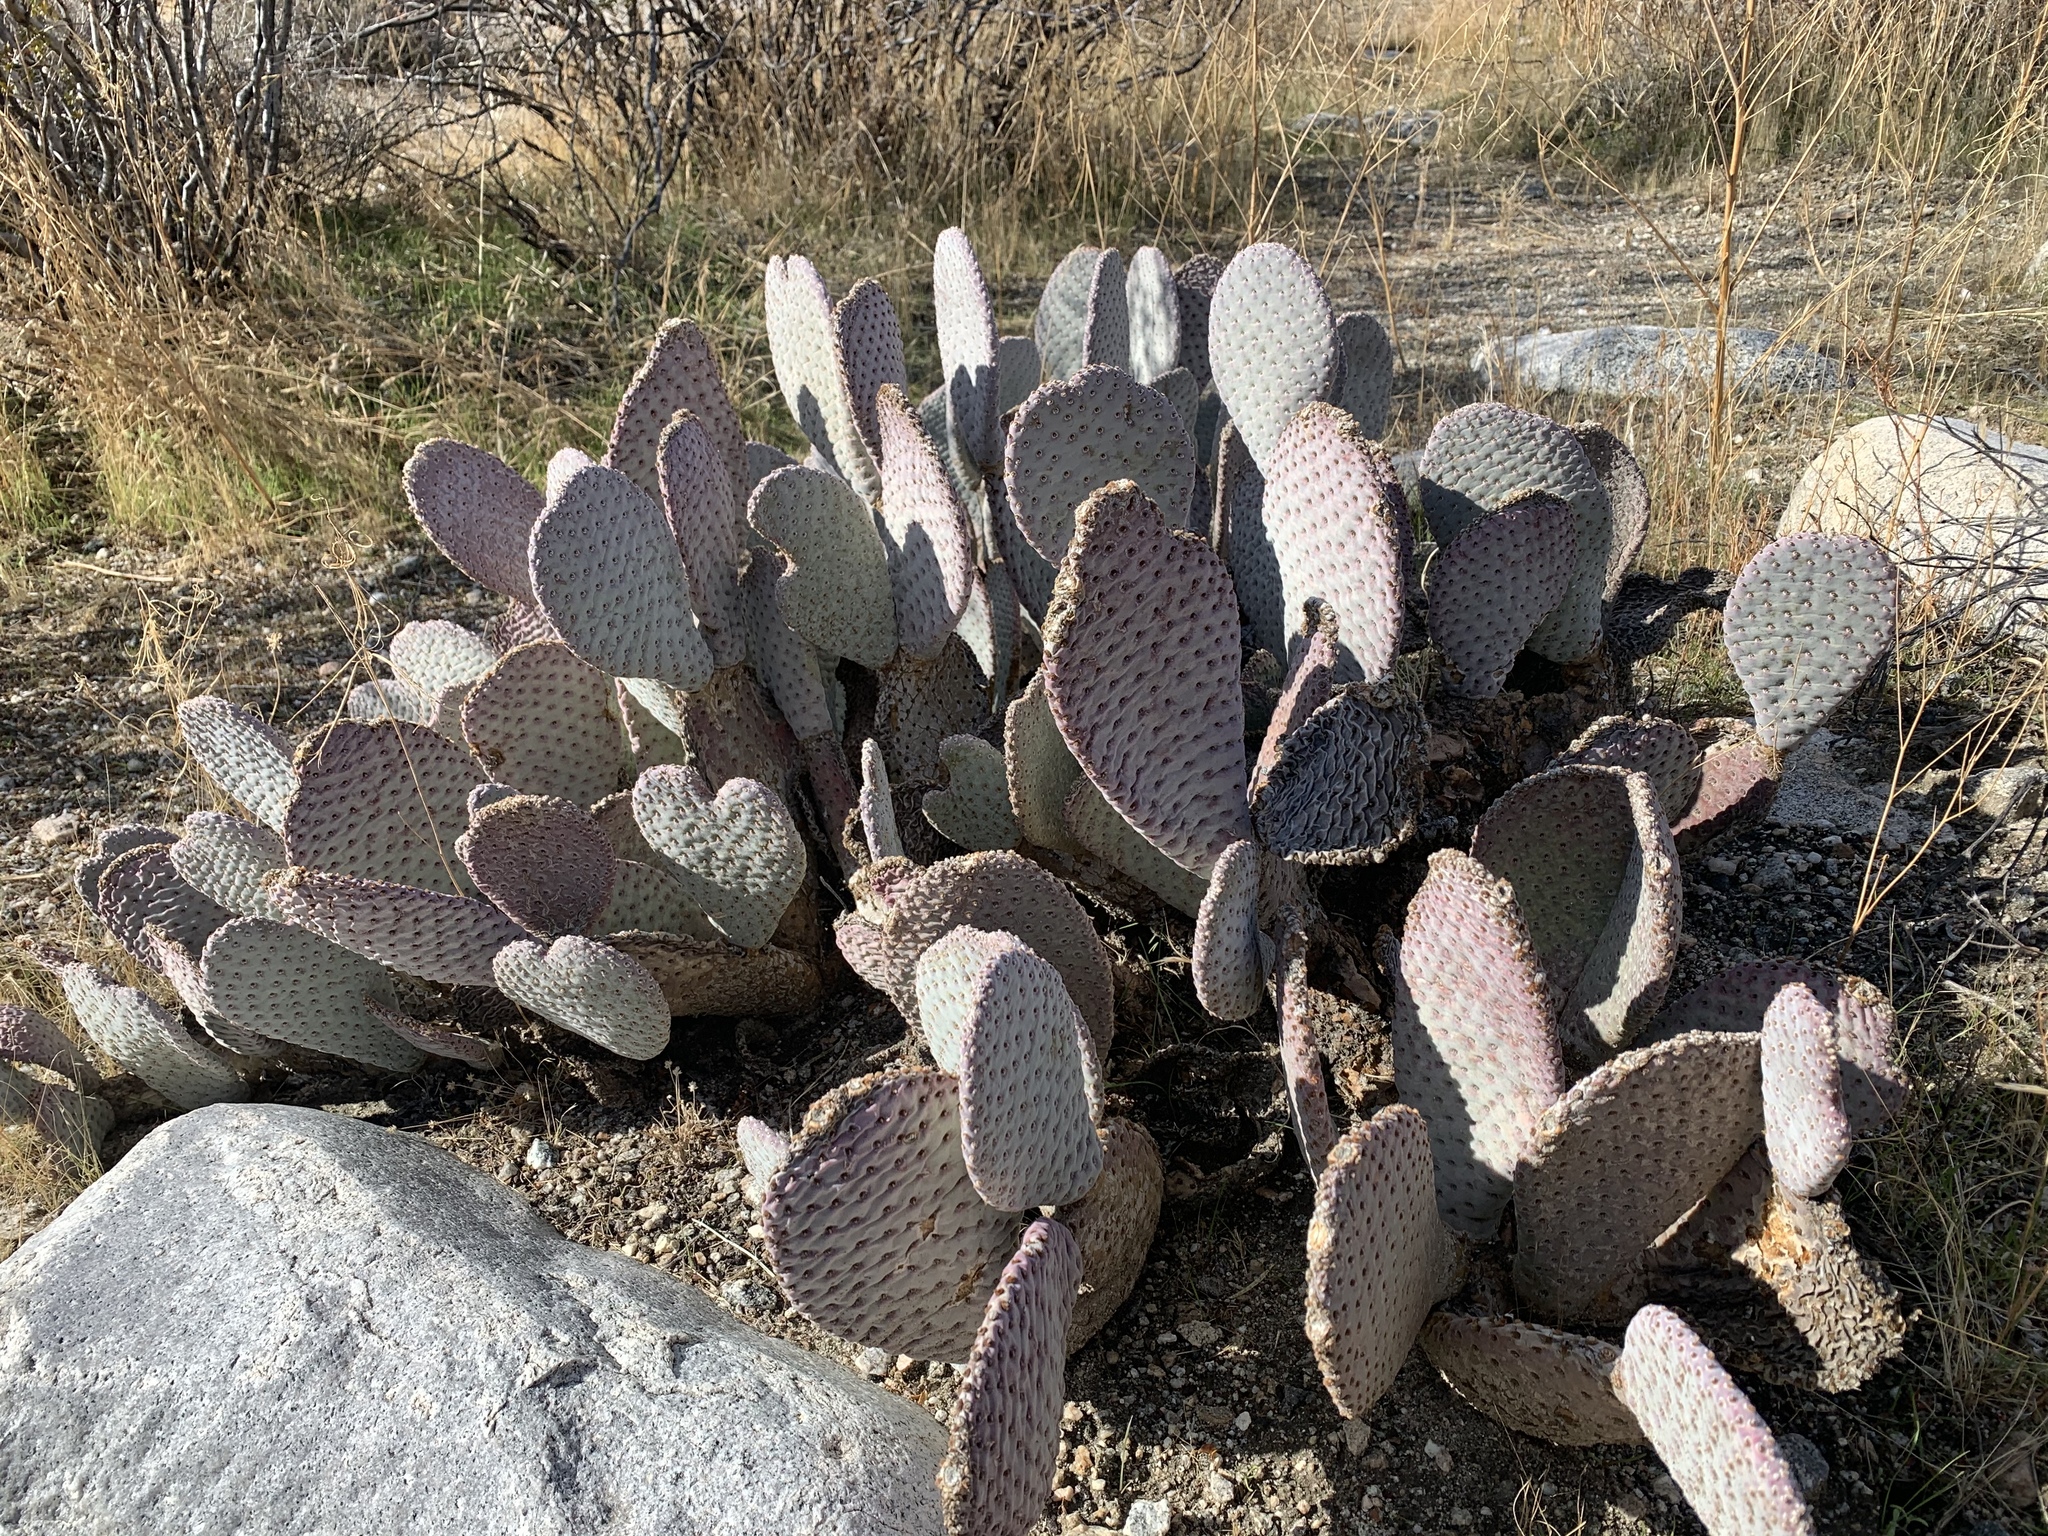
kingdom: Plantae
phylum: Tracheophyta
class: Magnoliopsida
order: Caryophyllales
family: Cactaceae
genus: Opuntia
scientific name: Opuntia basilaris
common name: Beavertail prickly-pear
